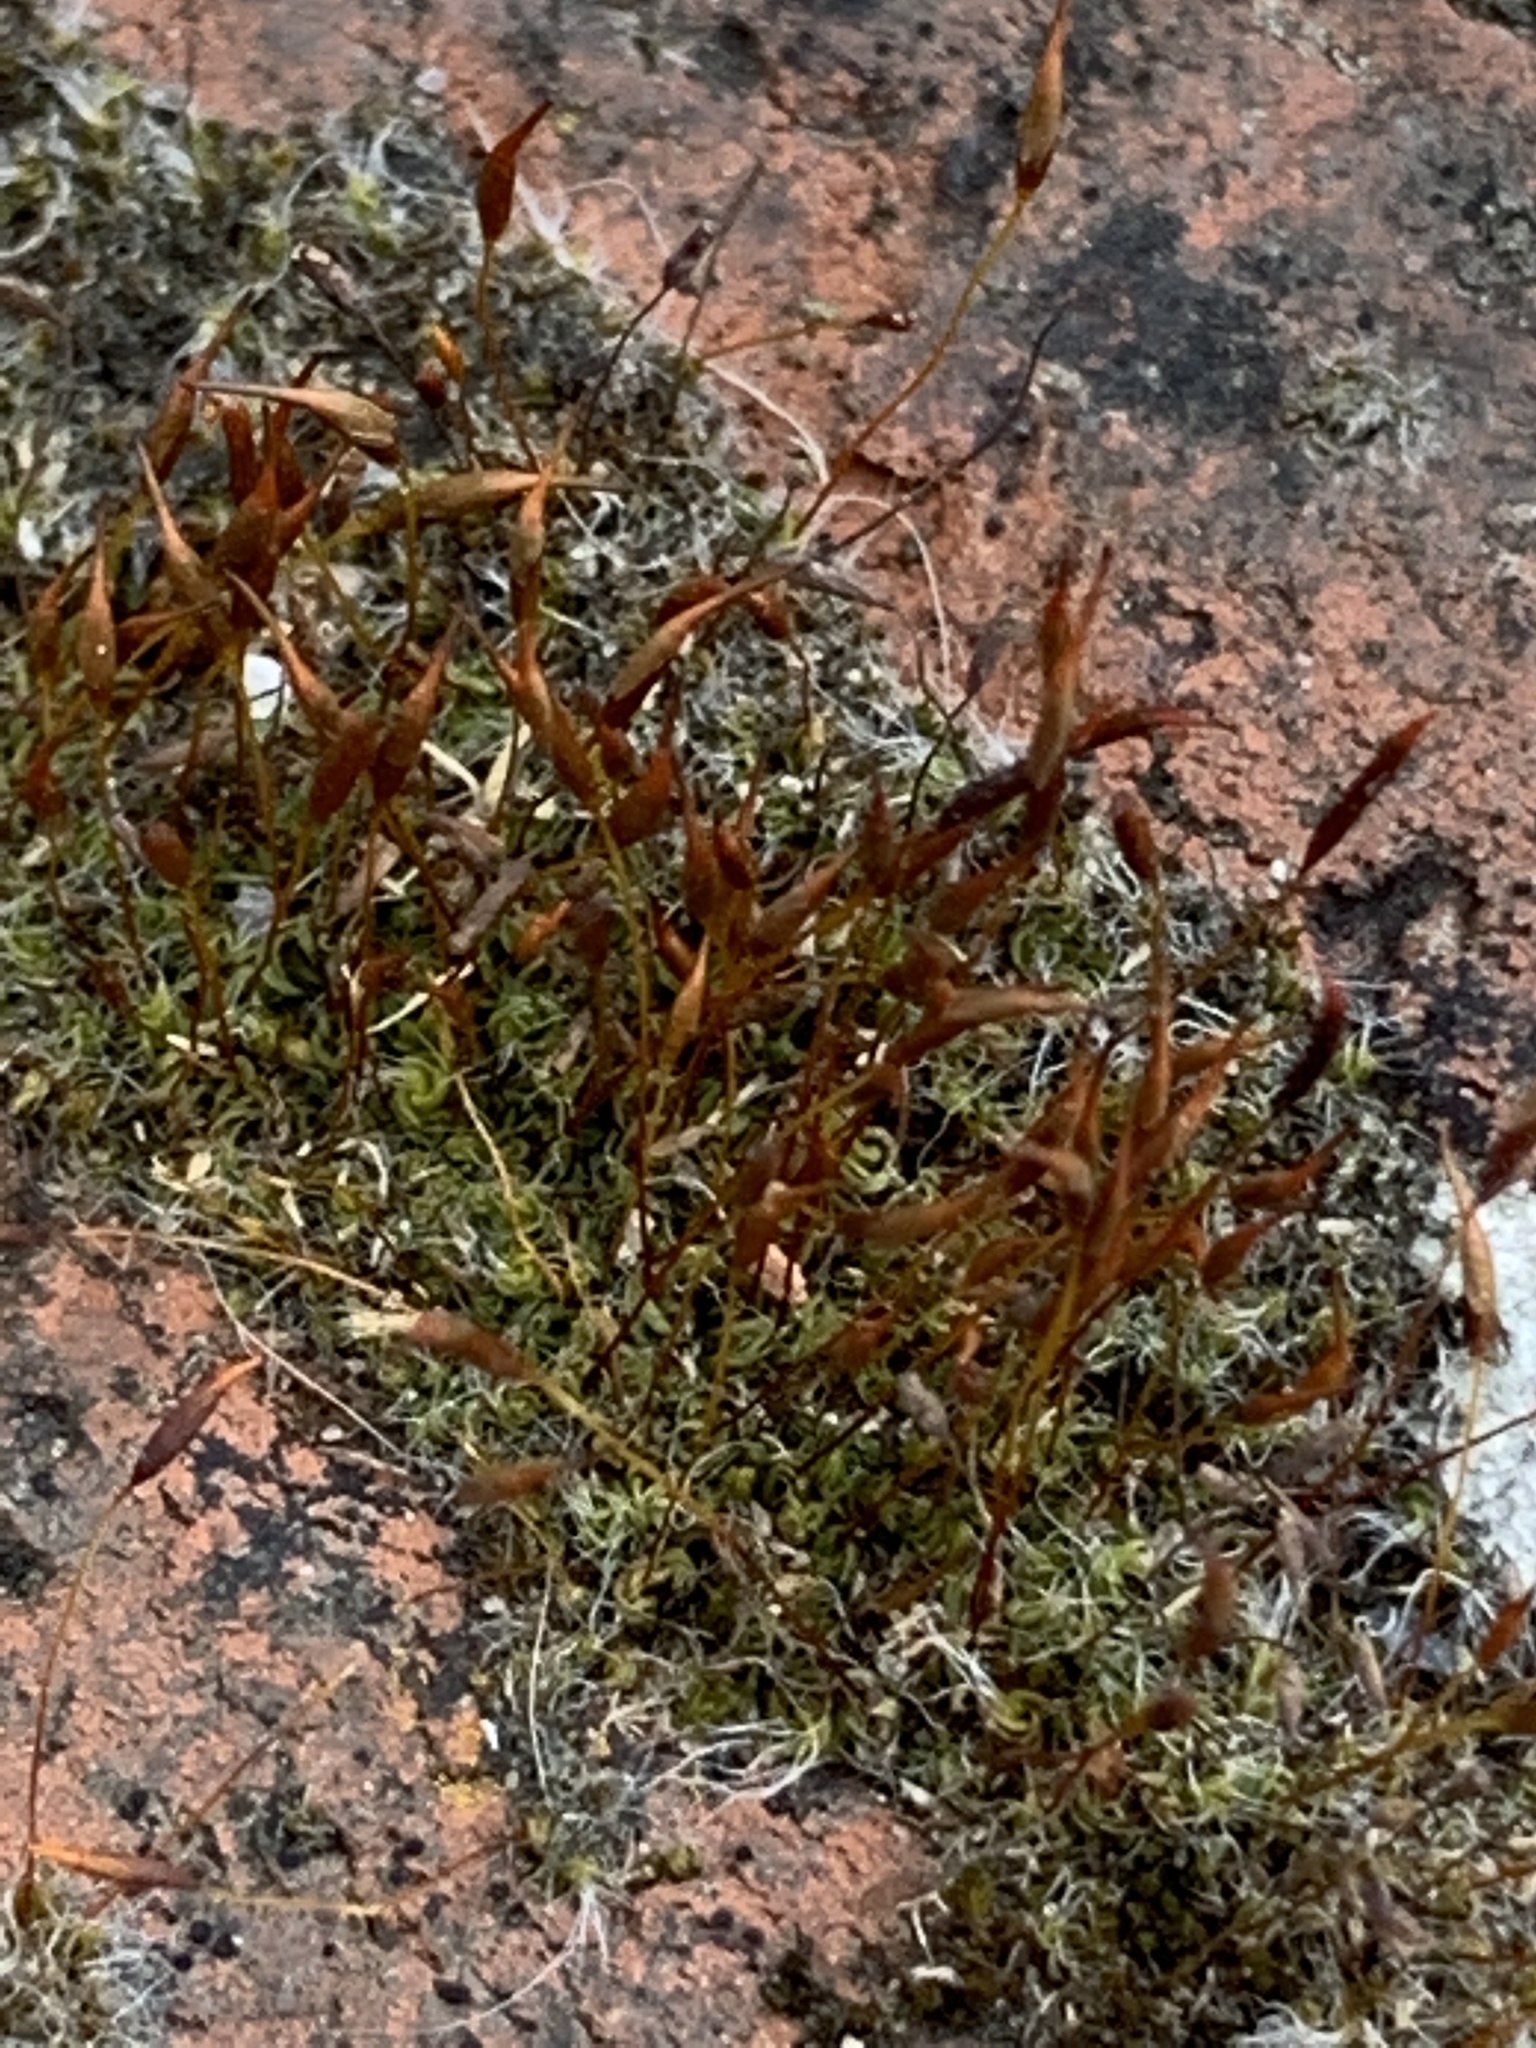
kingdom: Plantae
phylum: Bryophyta
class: Bryopsida
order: Pottiales
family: Pottiaceae
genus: Tortula
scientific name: Tortula muralis
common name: Wall screw-moss
